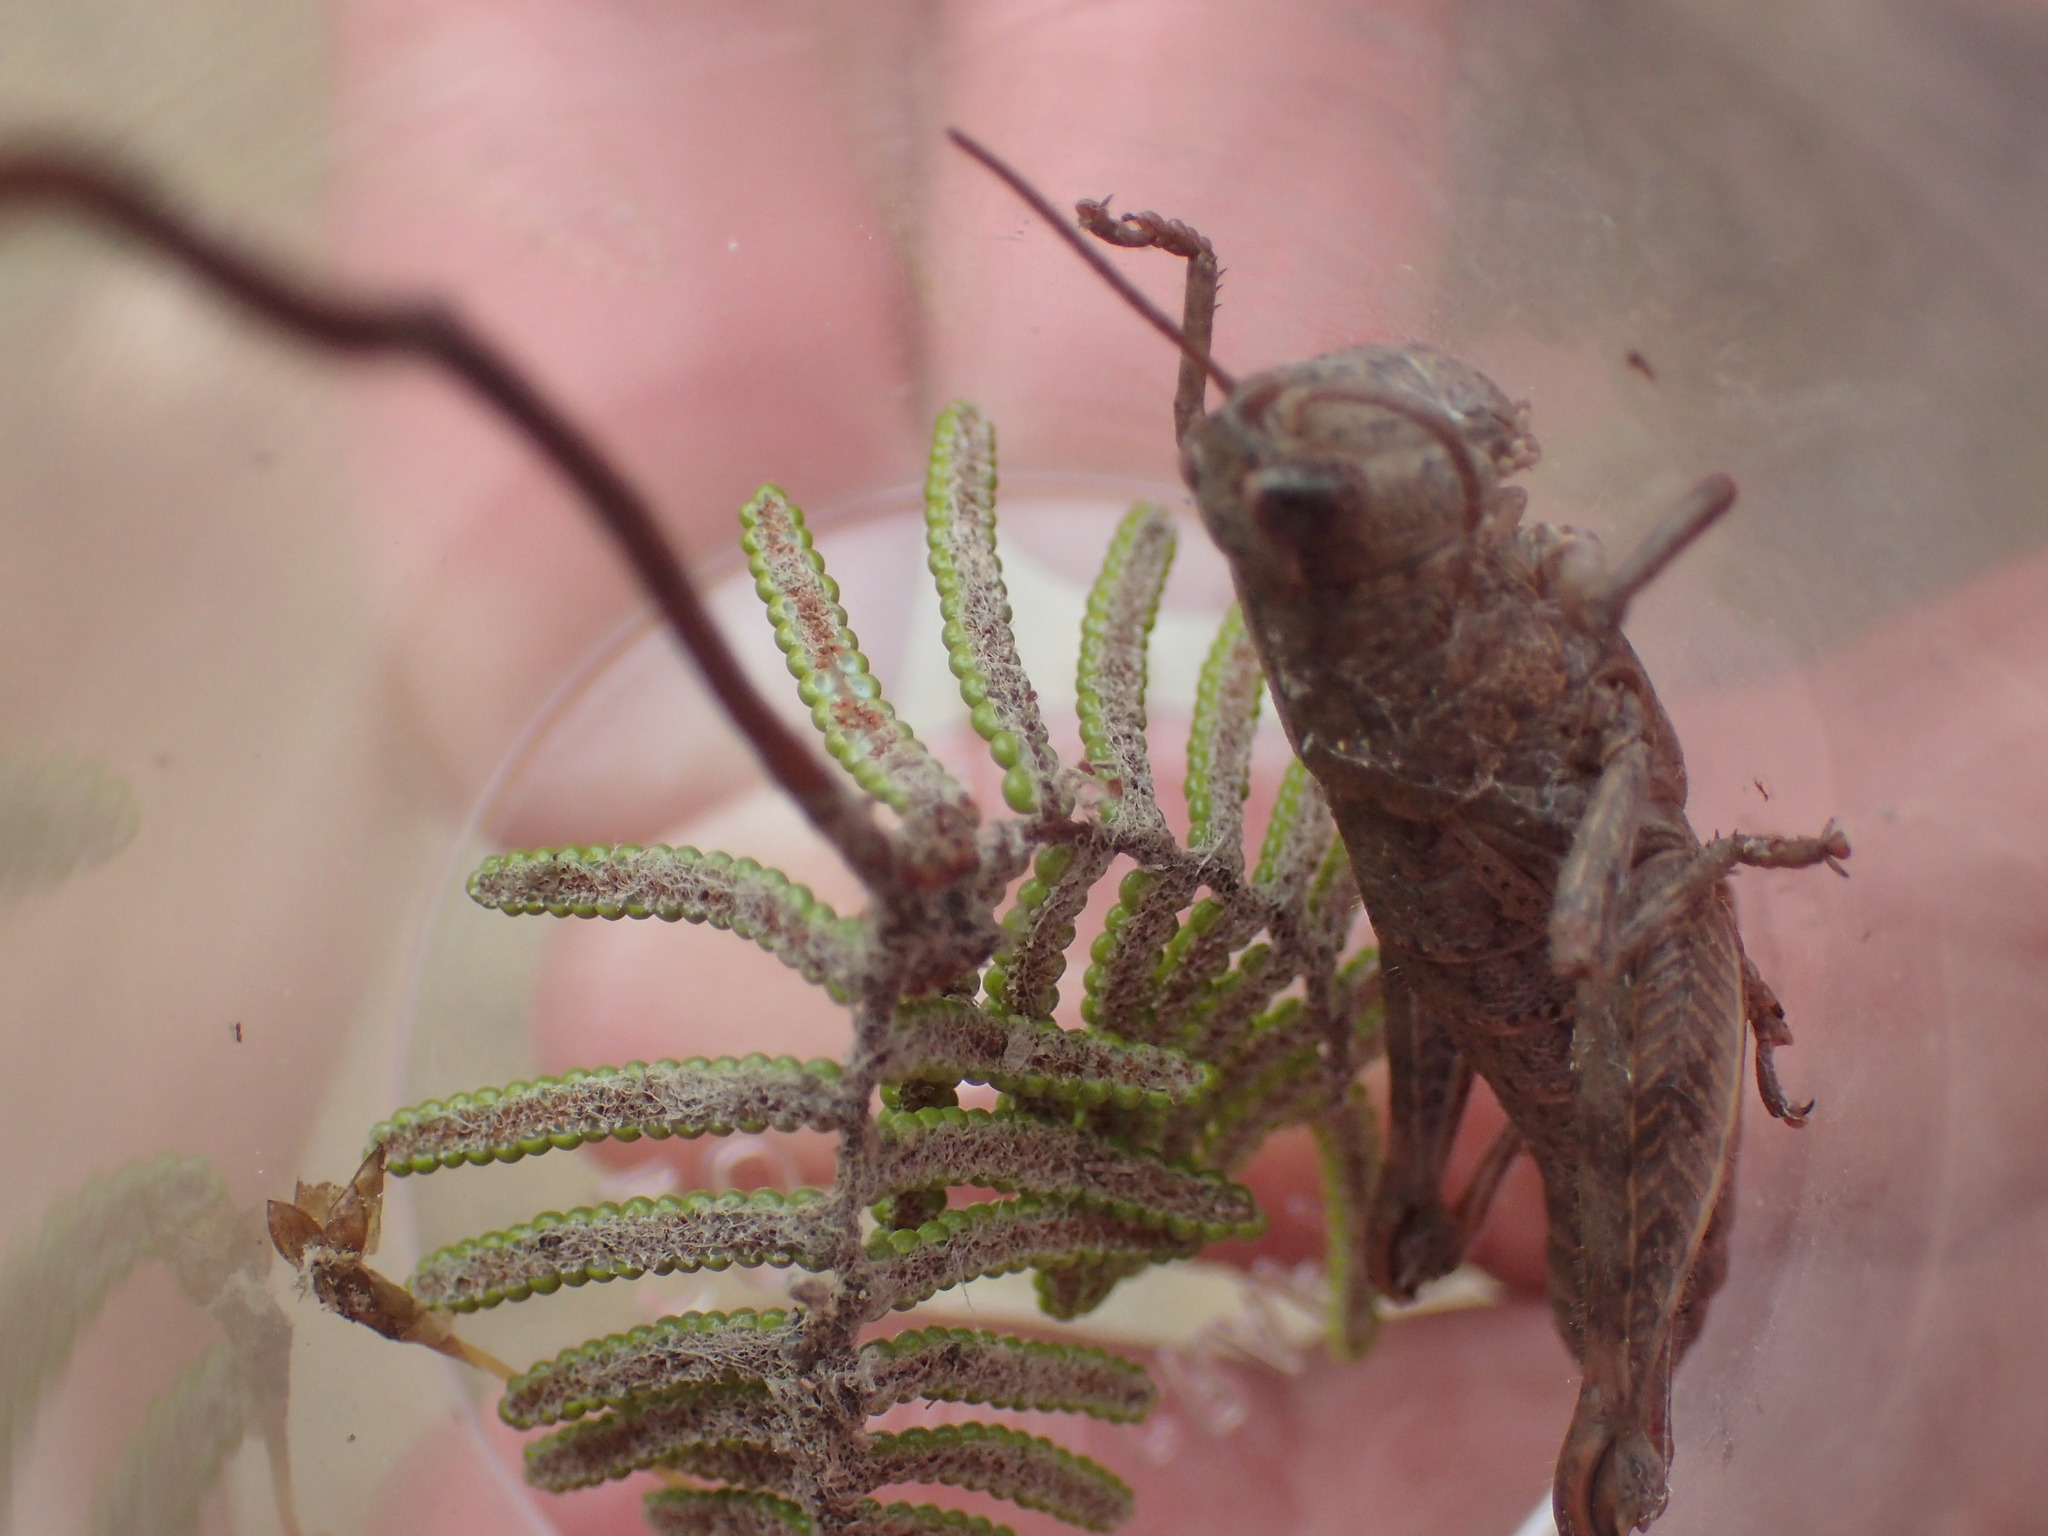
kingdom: Animalia
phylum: Arthropoda
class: Insecta
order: Orthoptera
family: Acrididae
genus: Tasmaniacris
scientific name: Tasmaniacris tasmaniensis
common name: Tasmanian grasshopper
